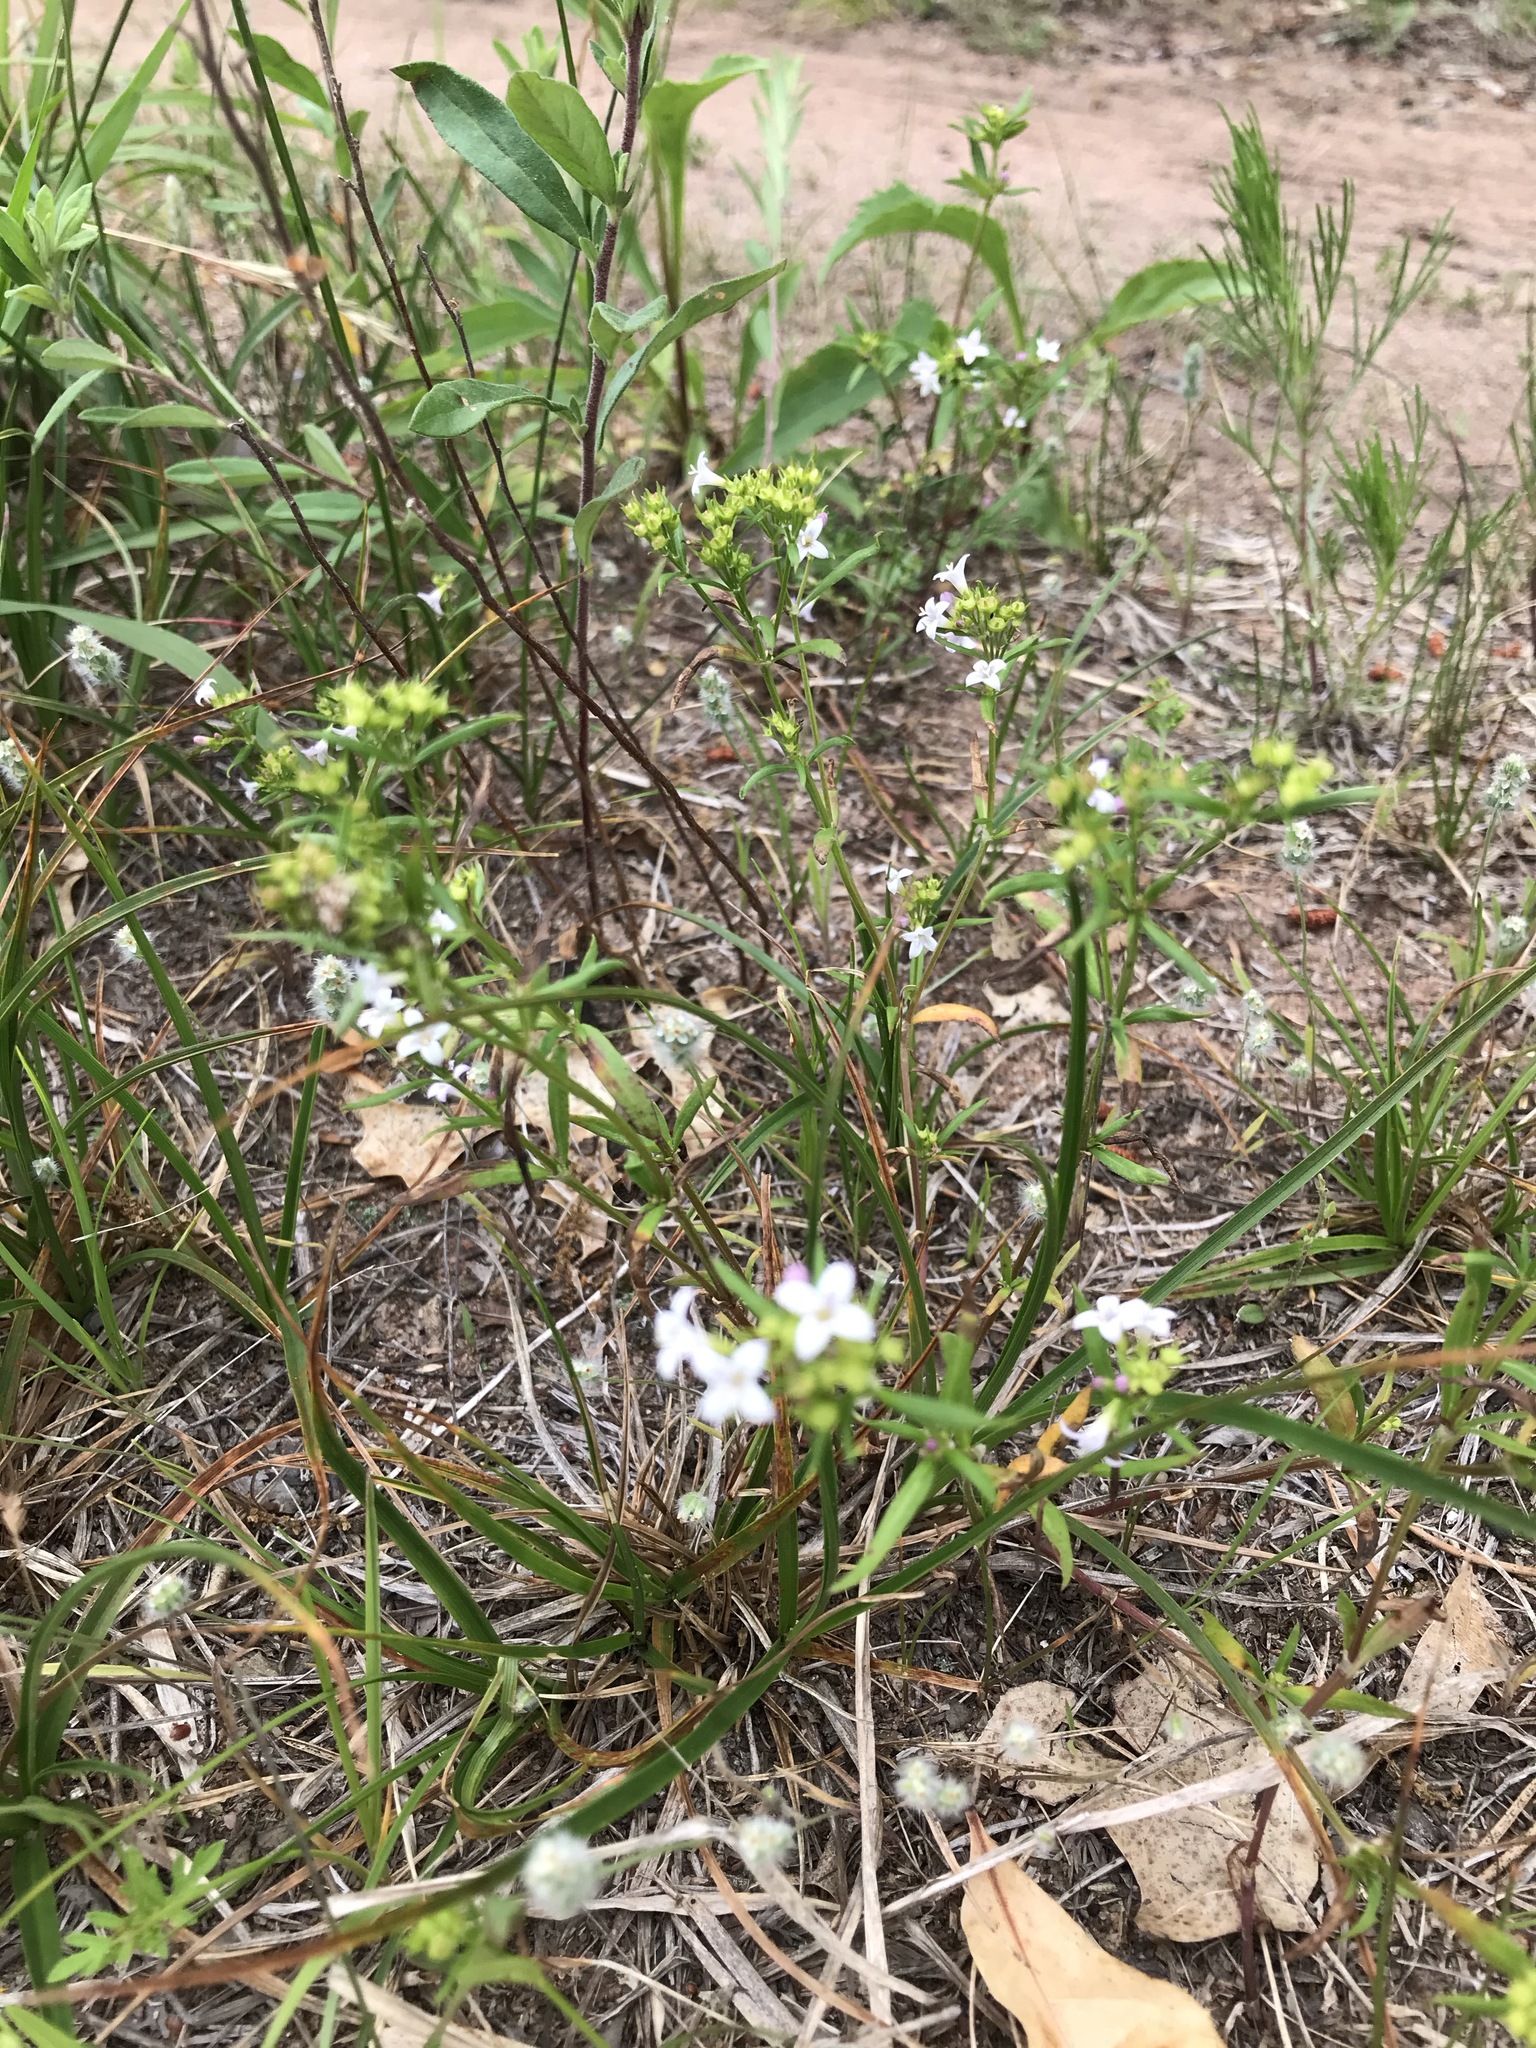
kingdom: Plantae
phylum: Tracheophyta
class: Magnoliopsida
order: Gentianales
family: Rubiaceae
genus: Houstonia
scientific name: Houstonia longifolia
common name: Long-leaved bluets
